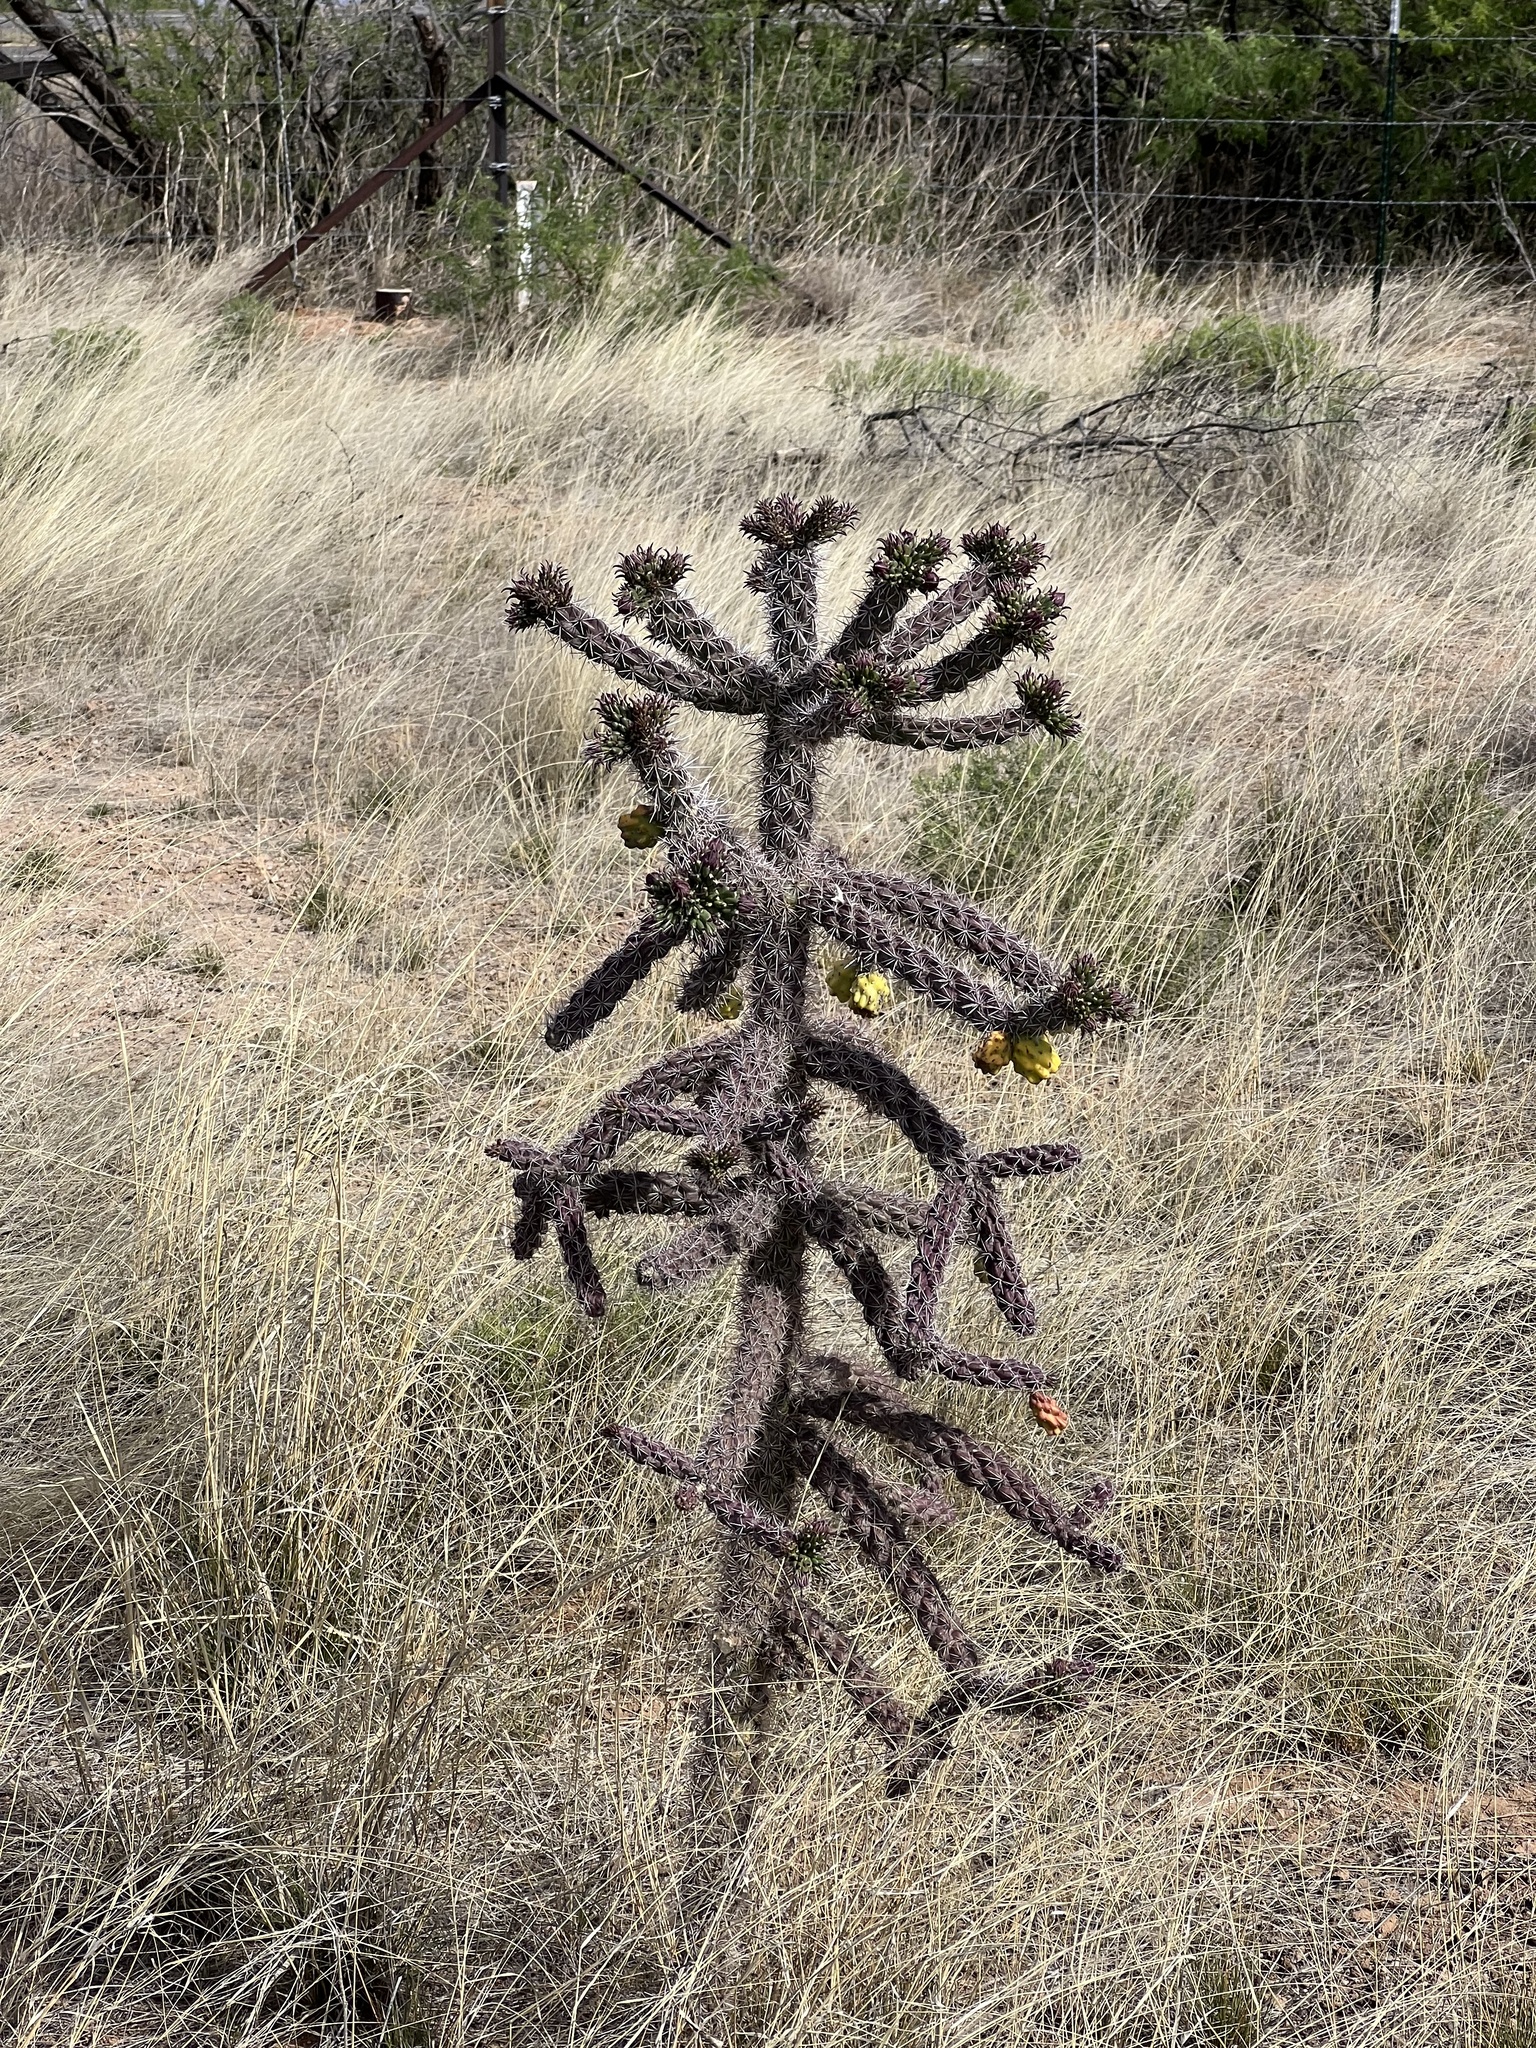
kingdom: Plantae
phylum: Tracheophyta
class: Magnoliopsida
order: Caryophyllales
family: Cactaceae
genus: Cylindropuntia
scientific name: Cylindropuntia imbricata
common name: Candelabrum cactus
